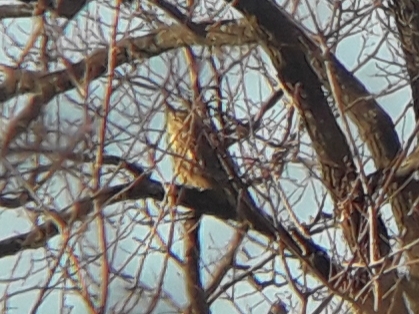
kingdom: Animalia
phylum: Chordata
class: Aves
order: Strigiformes
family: Strigidae
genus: Bubo
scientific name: Bubo bubo
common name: Eurasian eagle-owl
